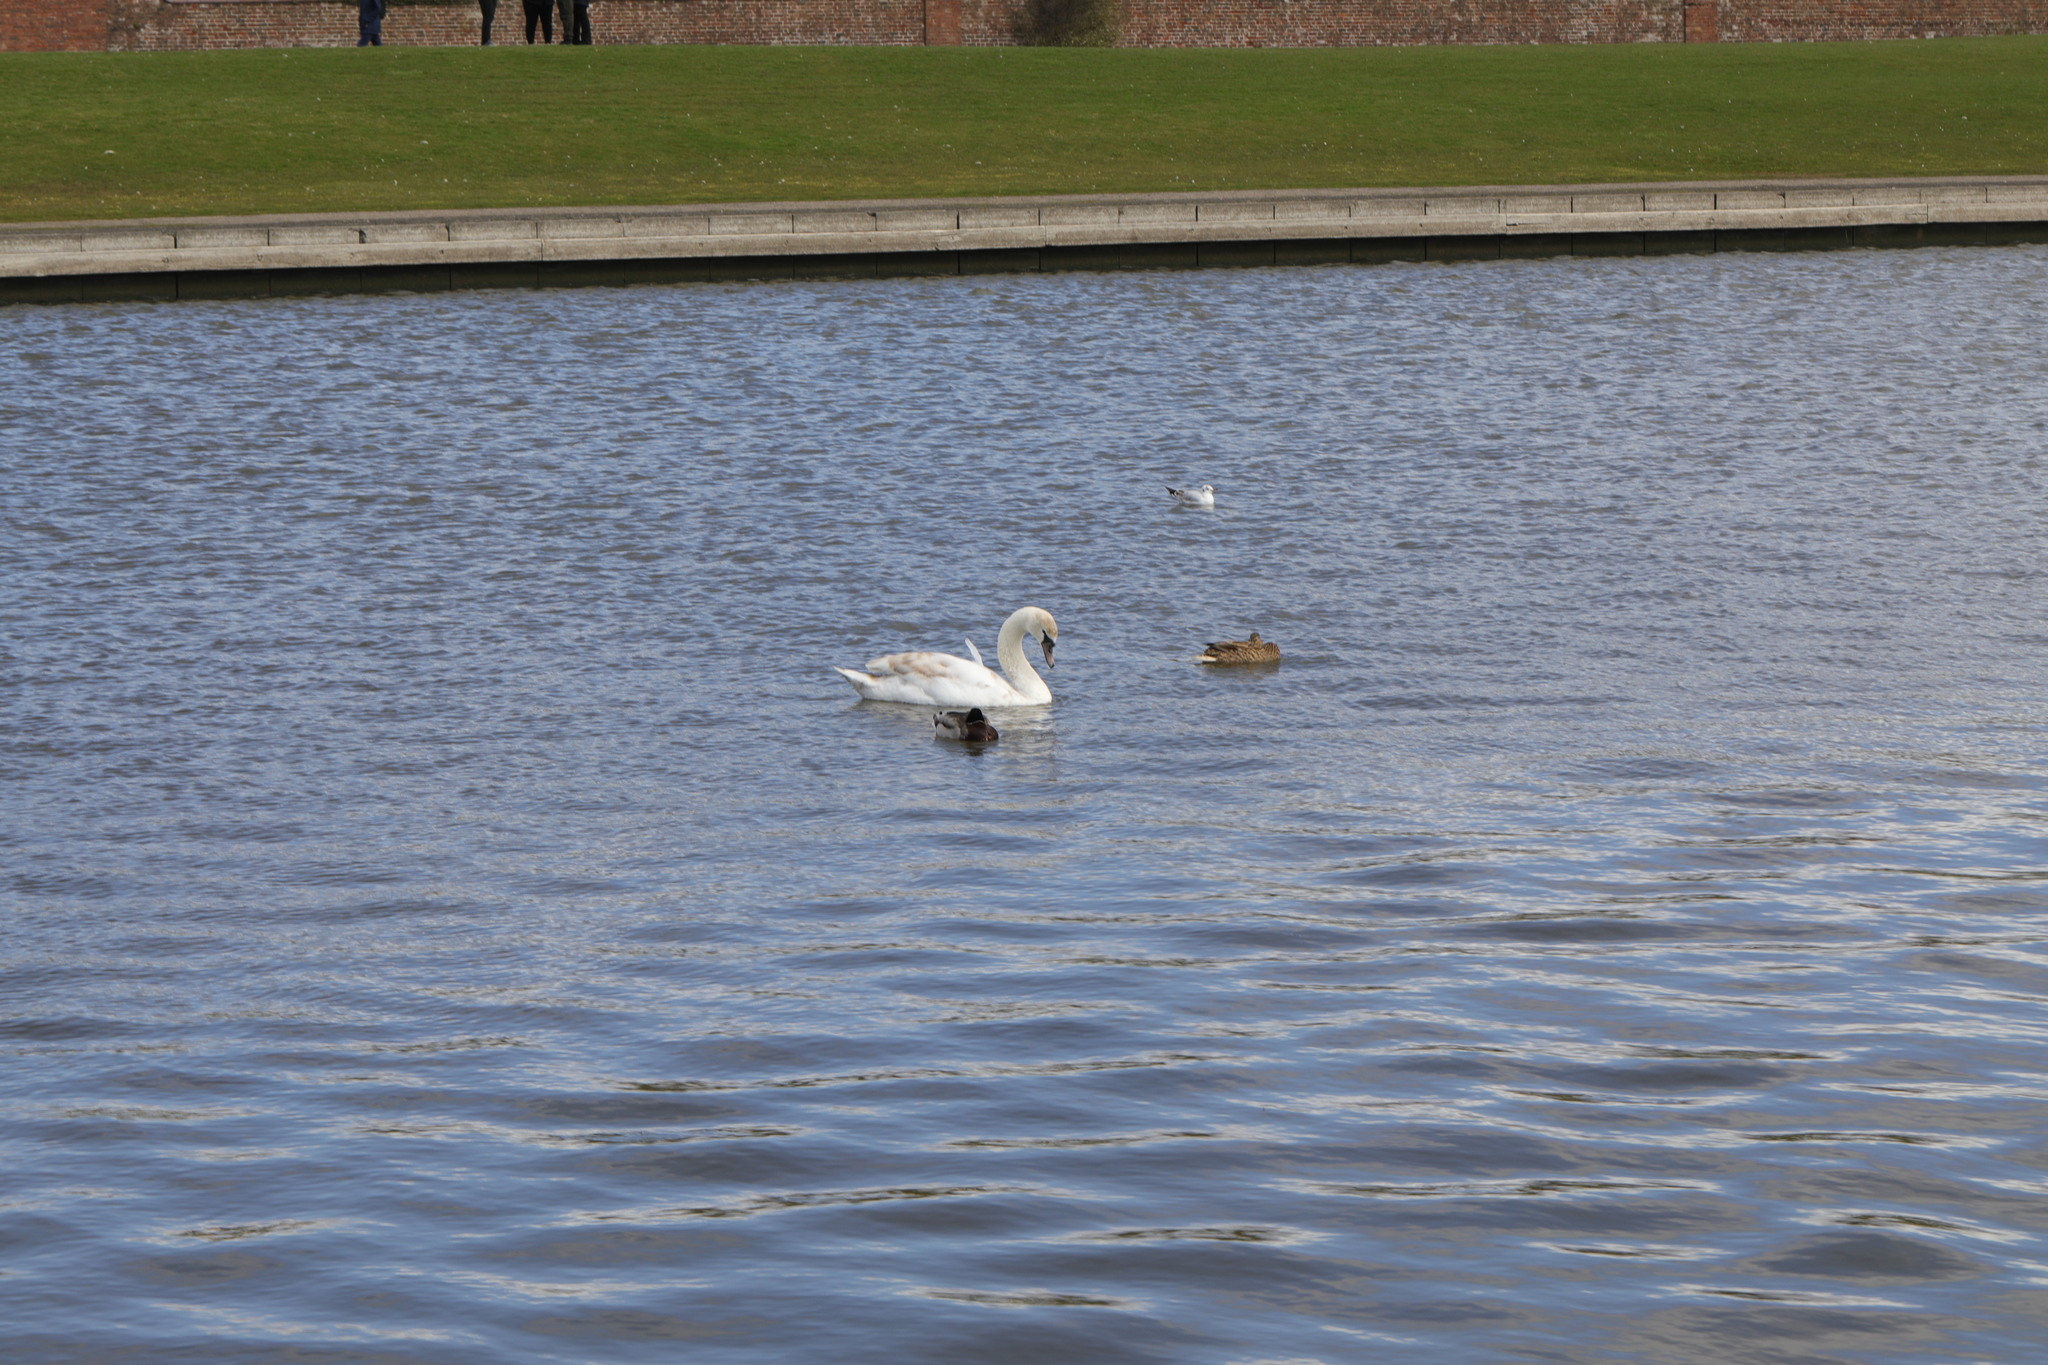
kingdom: Animalia
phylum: Chordata
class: Aves
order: Anseriformes
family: Anatidae
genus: Cygnus
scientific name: Cygnus olor
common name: Mute swan
